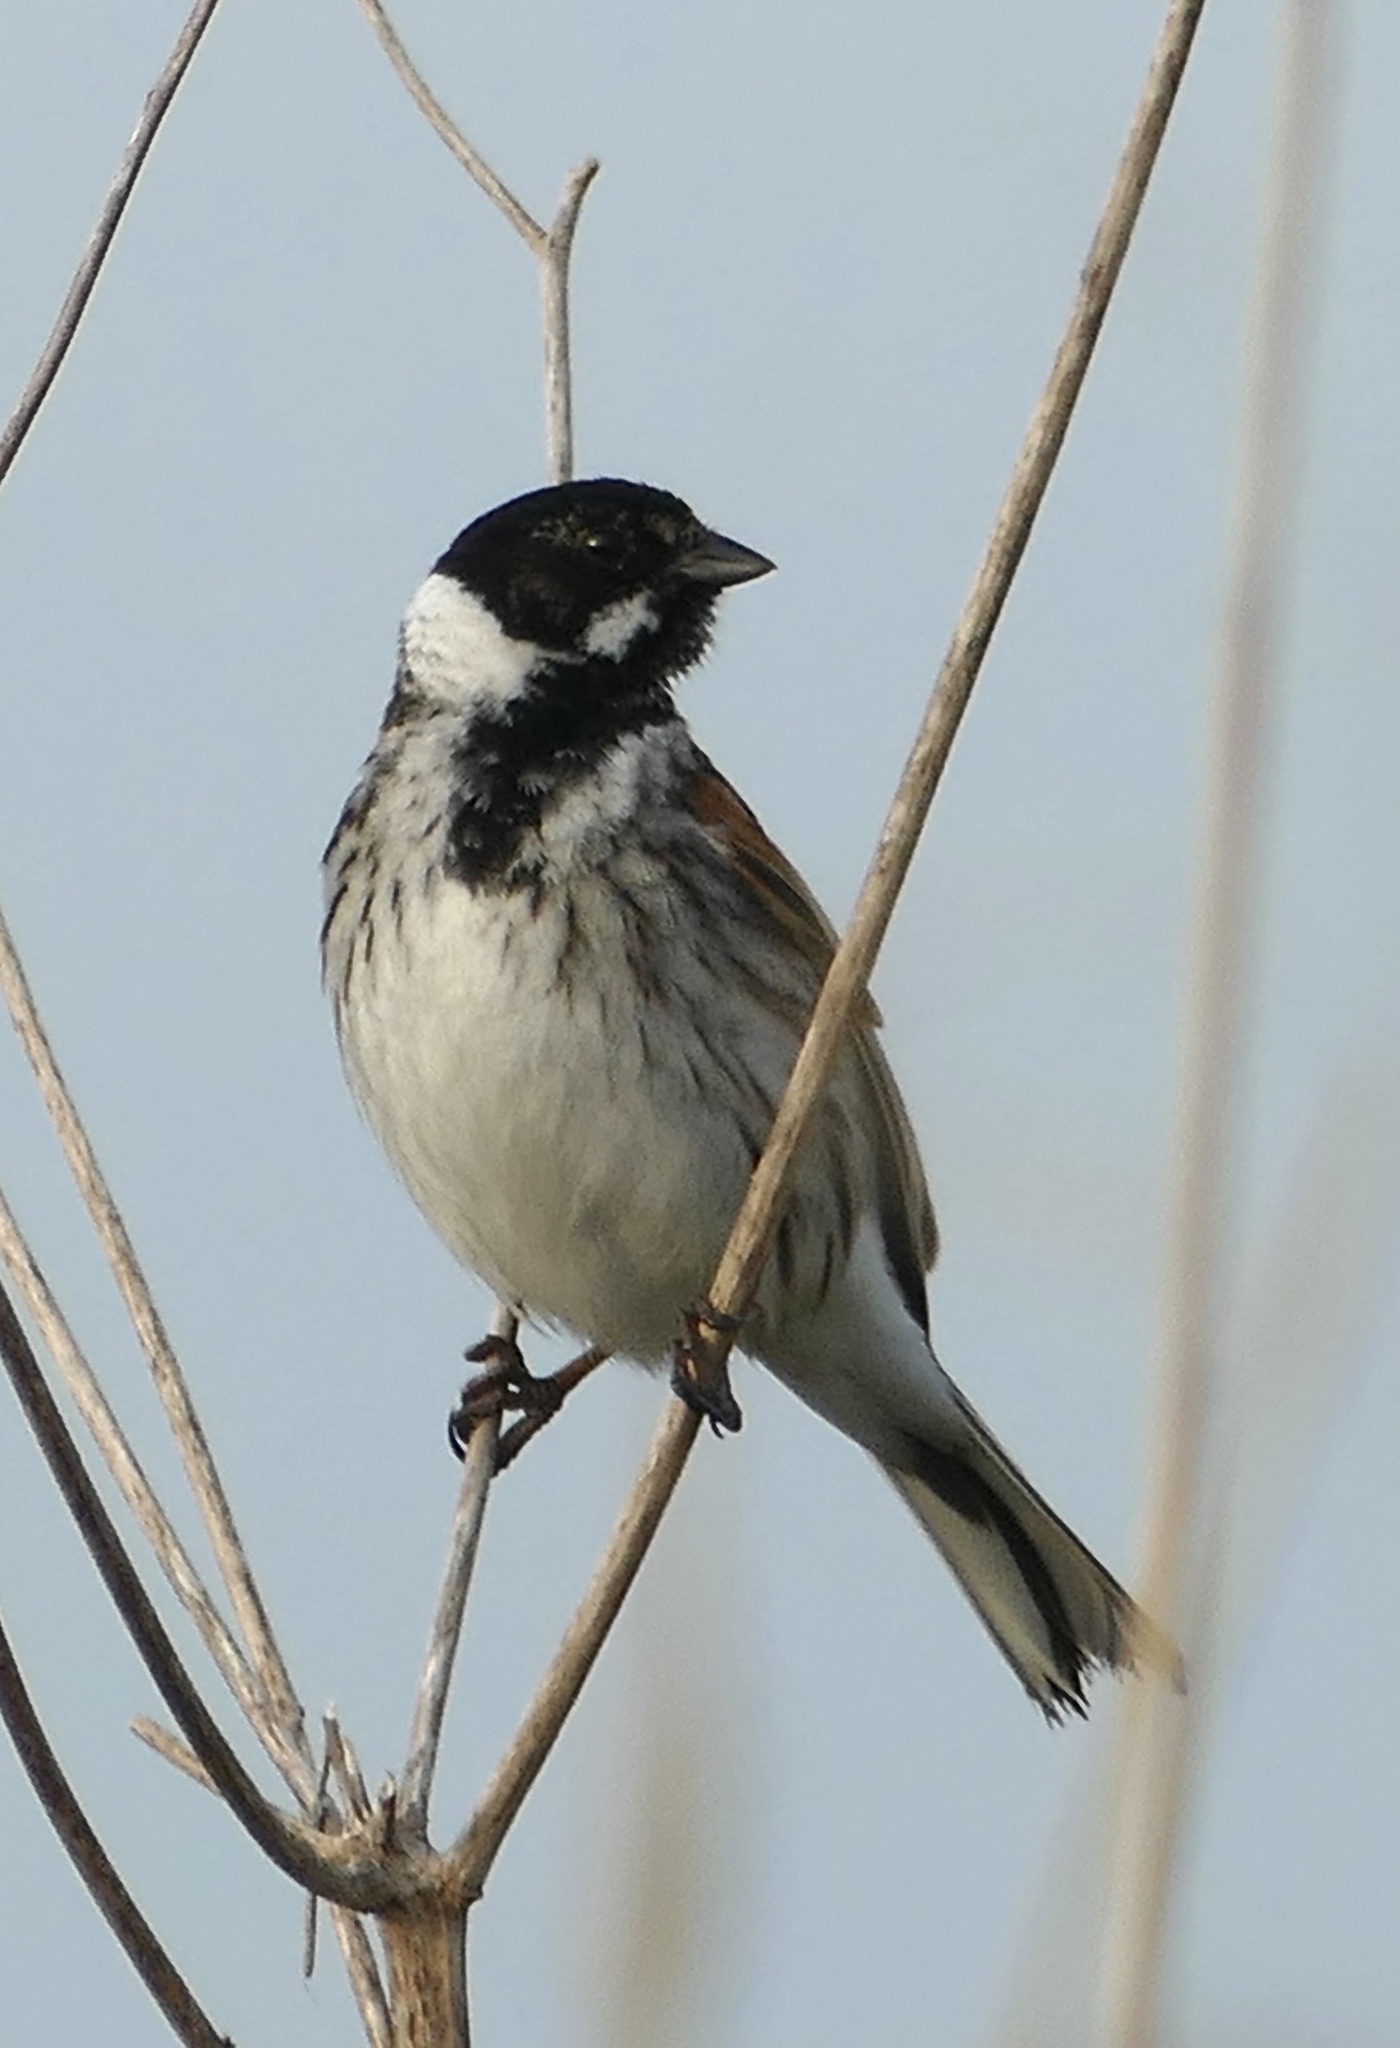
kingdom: Animalia
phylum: Chordata
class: Aves
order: Passeriformes
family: Emberizidae
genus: Emberiza
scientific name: Emberiza schoeniclus
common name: Reed bunting
